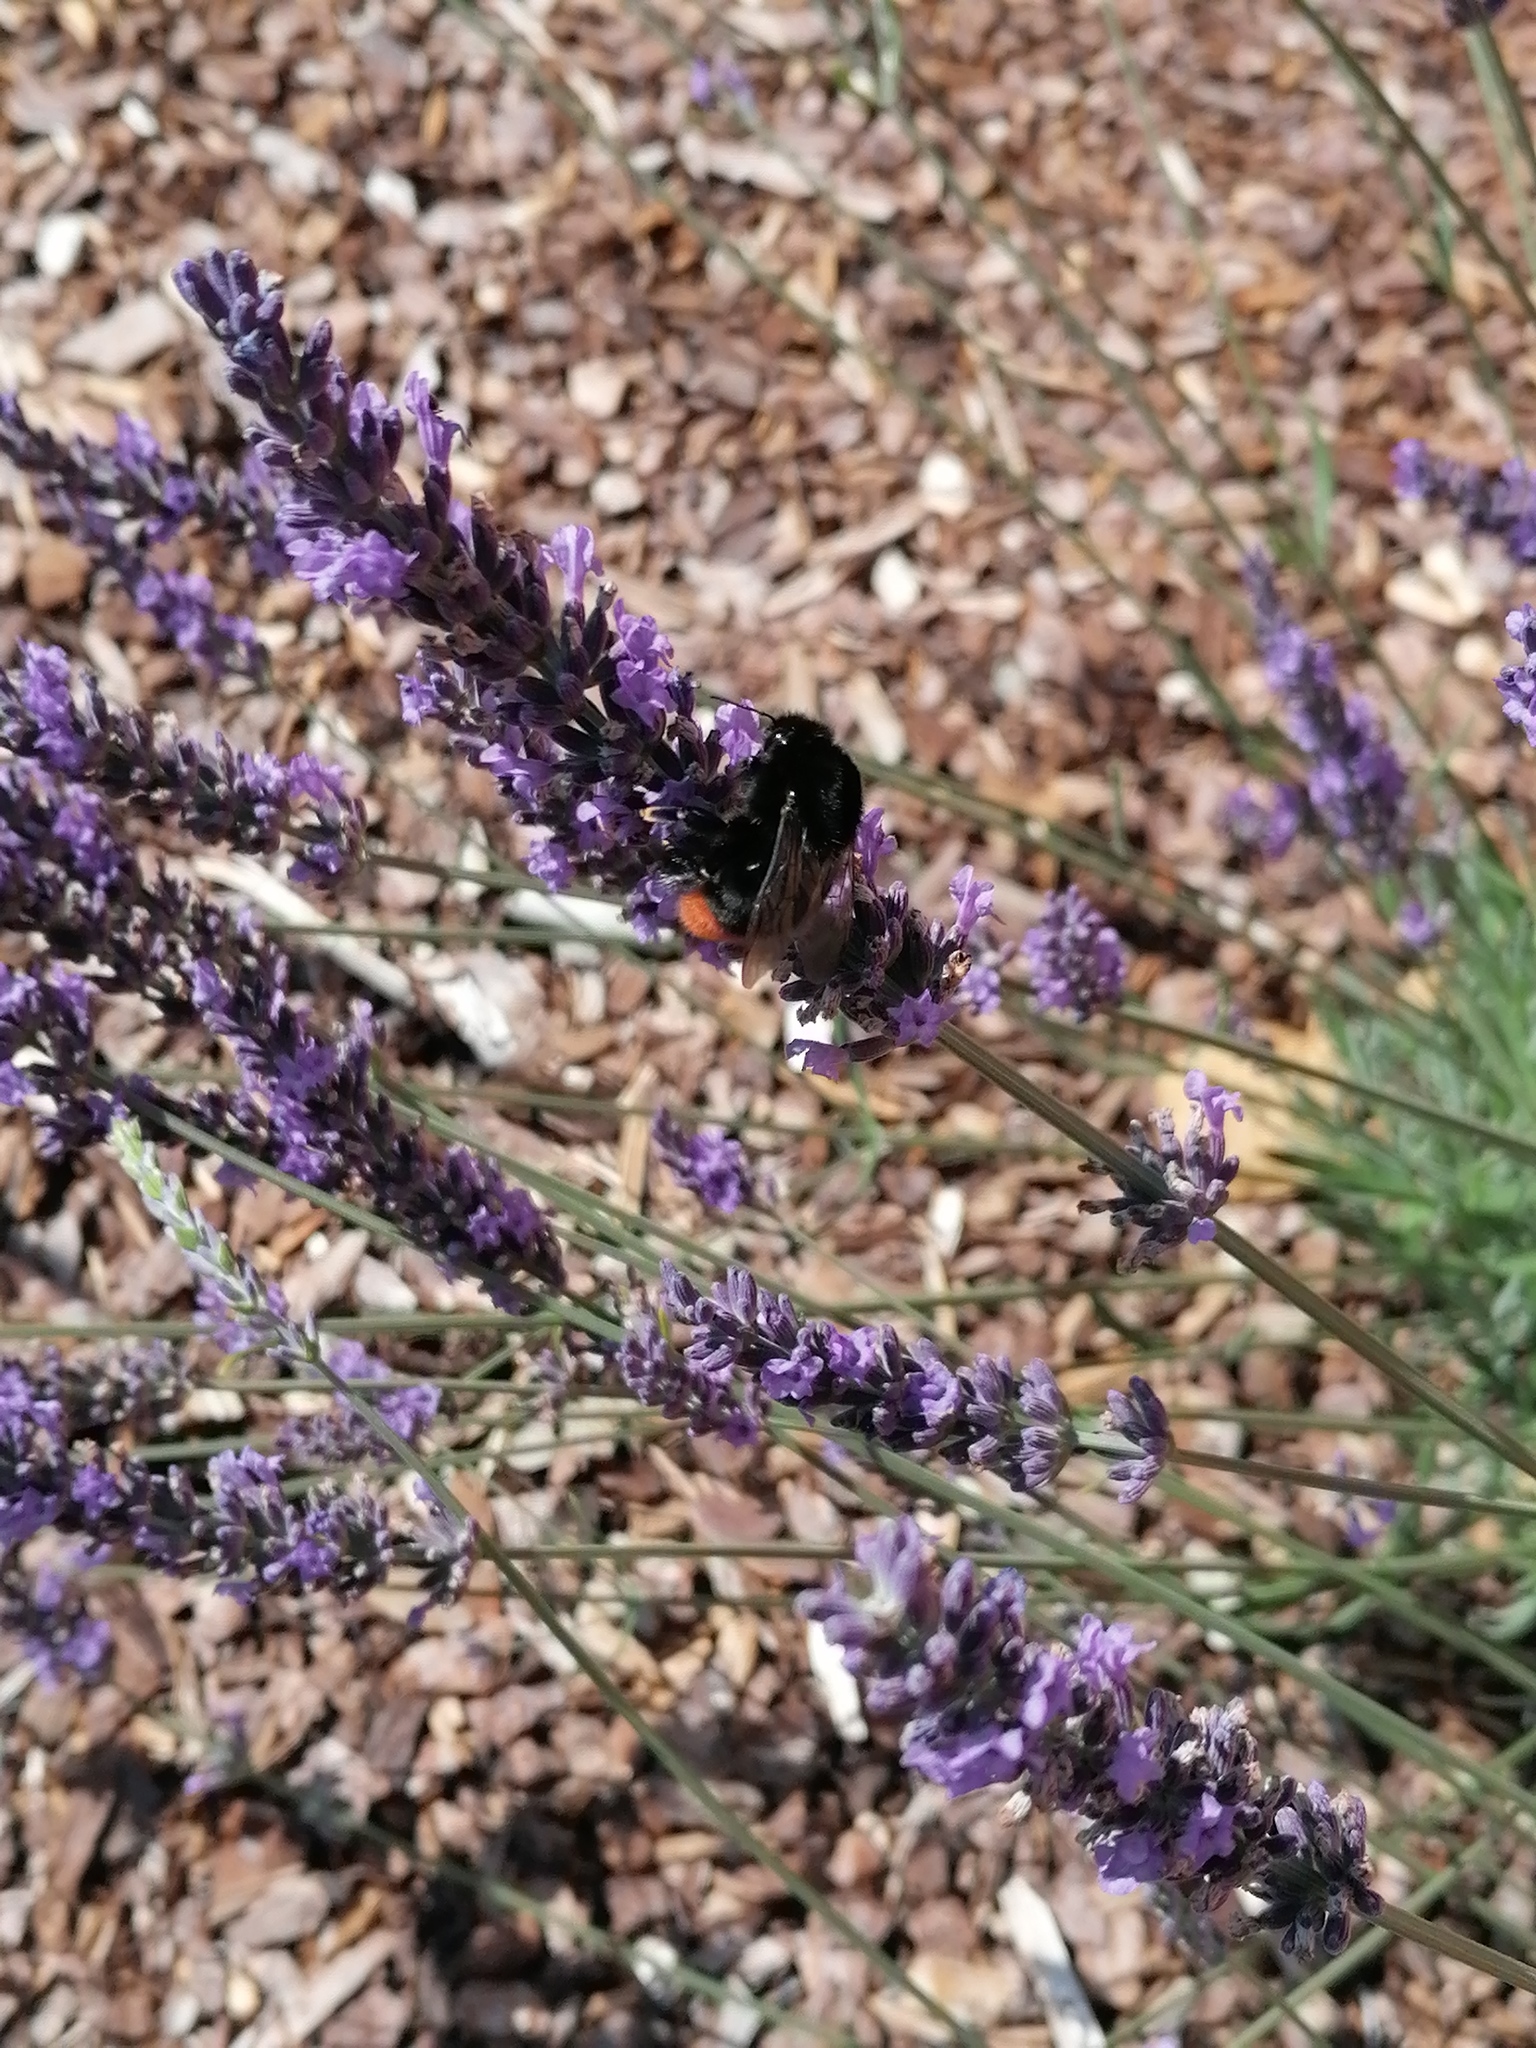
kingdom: Animalia
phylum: Arthropoda
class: Insecta
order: Hymenoptera
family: Apidae
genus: Bombus
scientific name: Bombus lapidarius
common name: Large red-tailed humble-bee
